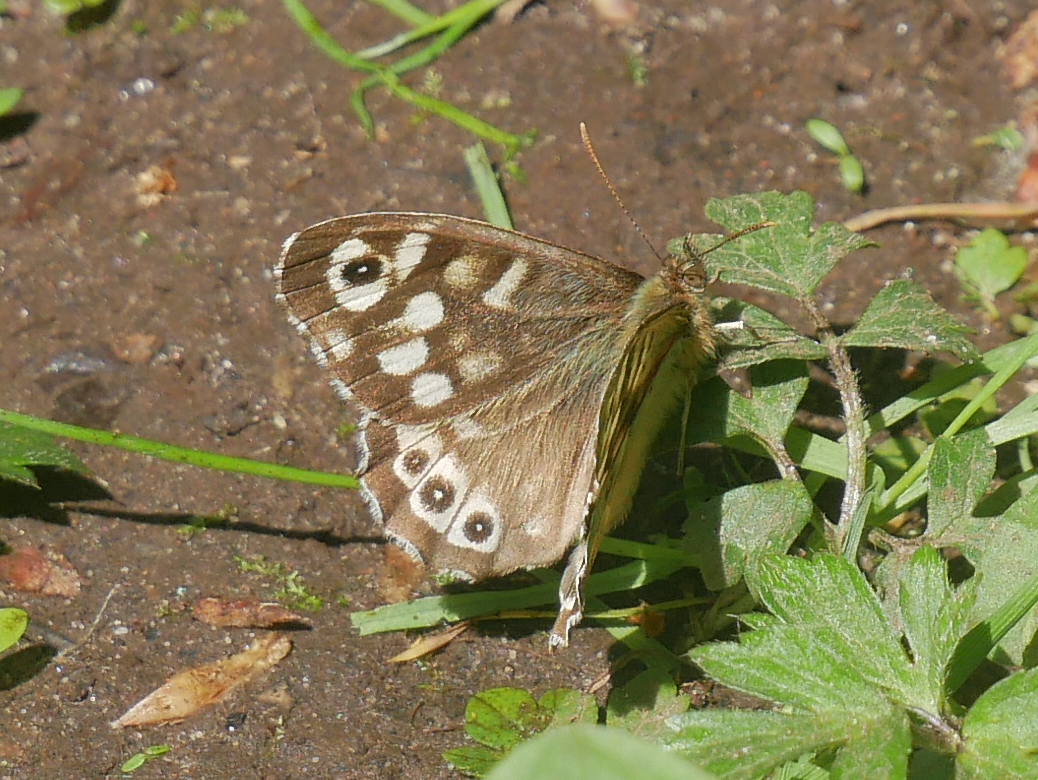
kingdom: Animalia
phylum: Arthropoda
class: Insecta
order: Lepidoptera
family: Nymphalidae
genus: Pararge
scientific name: Pararge aegeria
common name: Speckled wood
